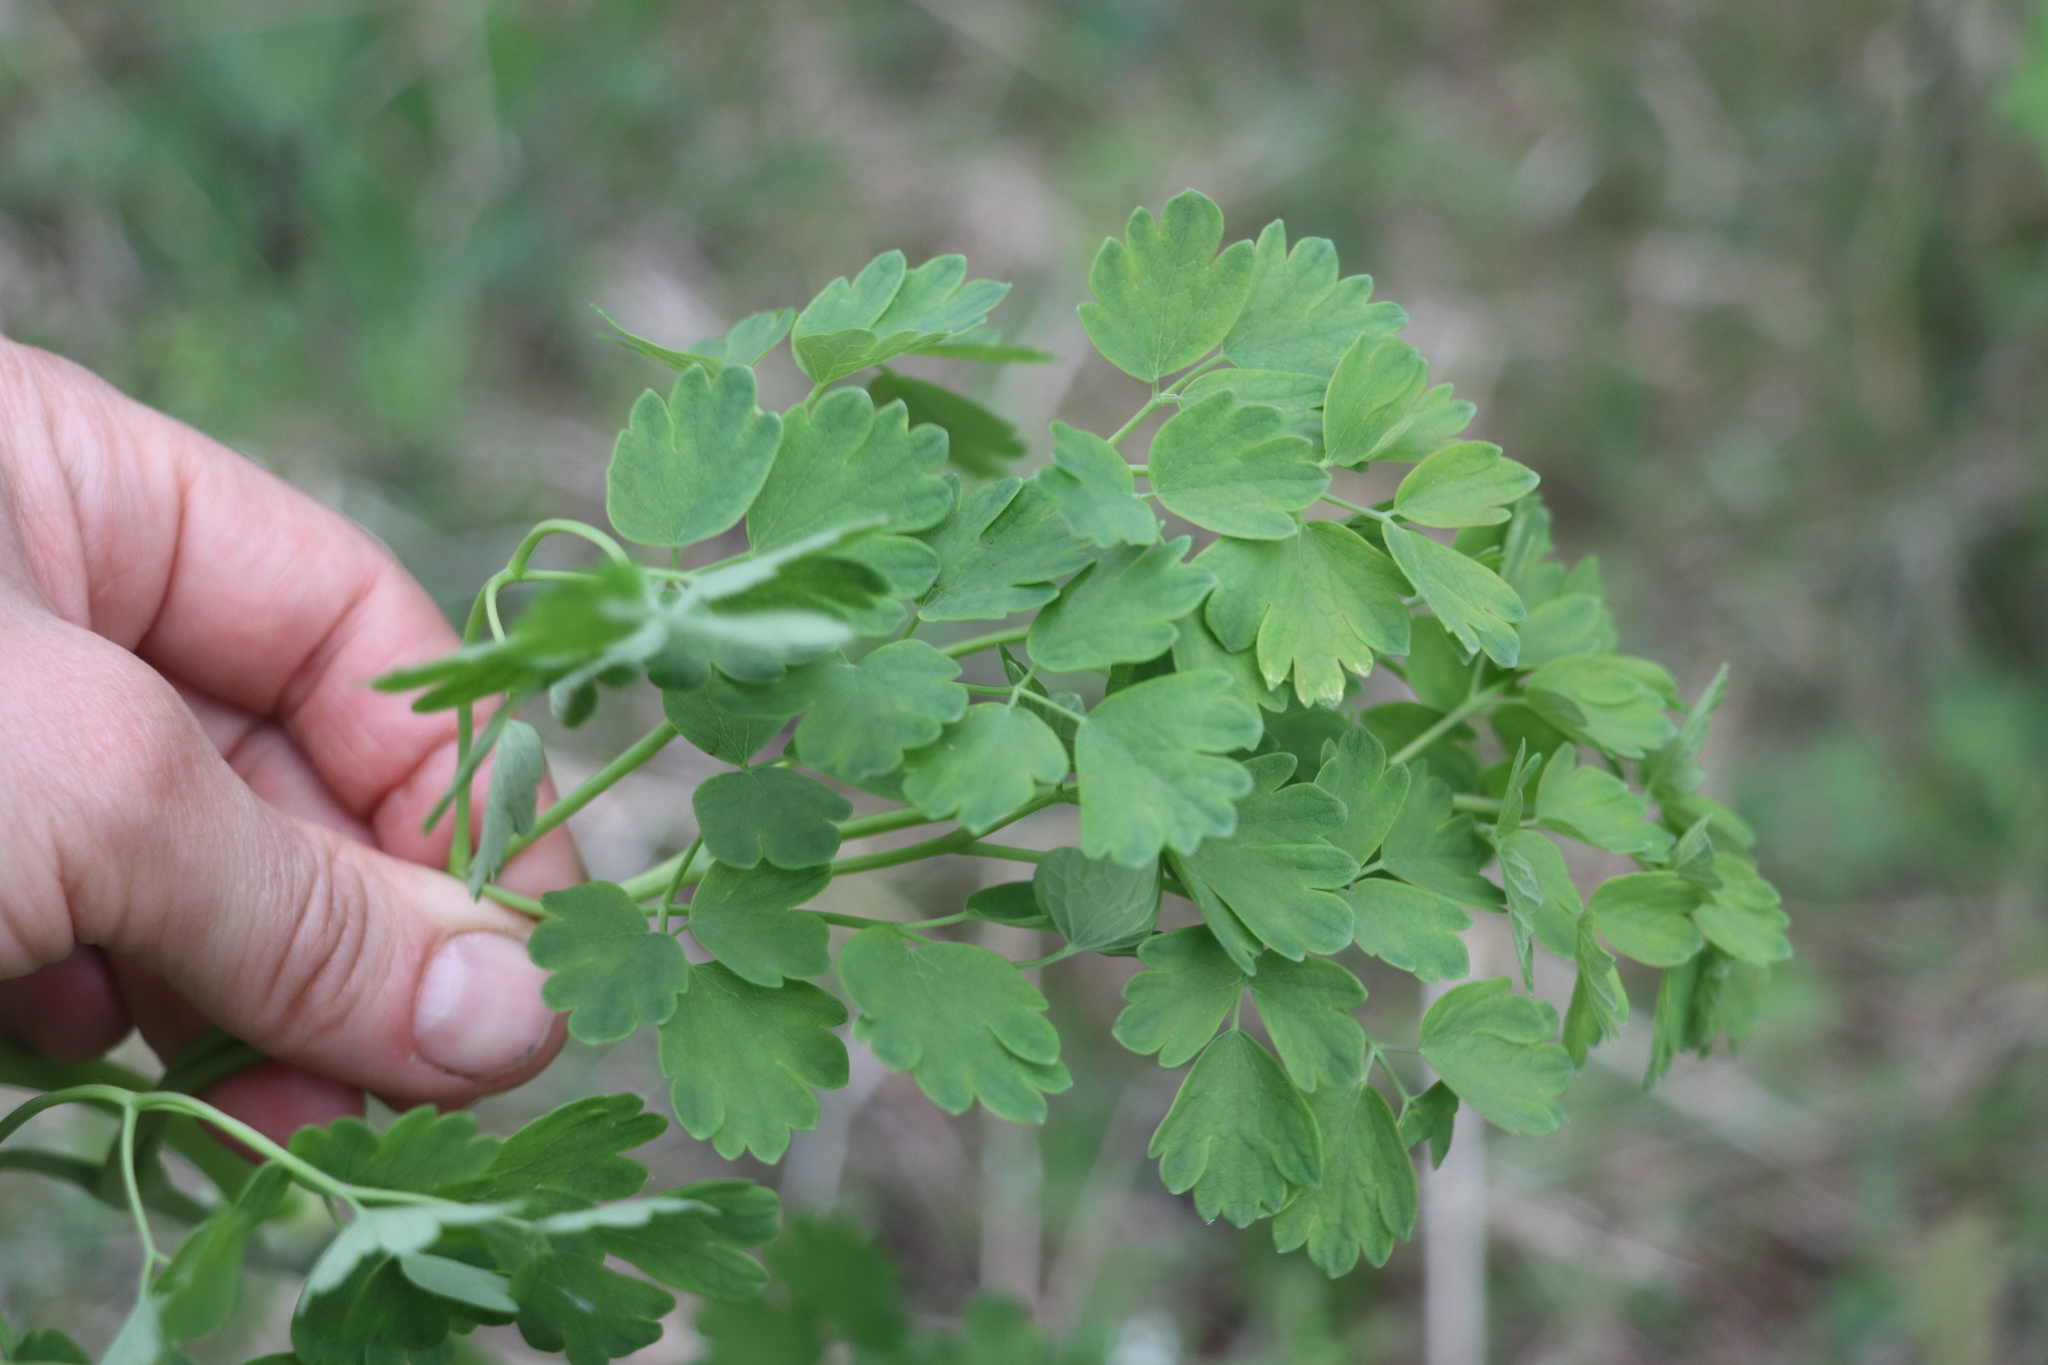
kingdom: Plantae
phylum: Tracheophyta
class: Magnoliopsida
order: Ranunculales
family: Ranunculaceae
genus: Thalictrum
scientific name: Thalictrum minus
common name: Lesser meadow-rue
